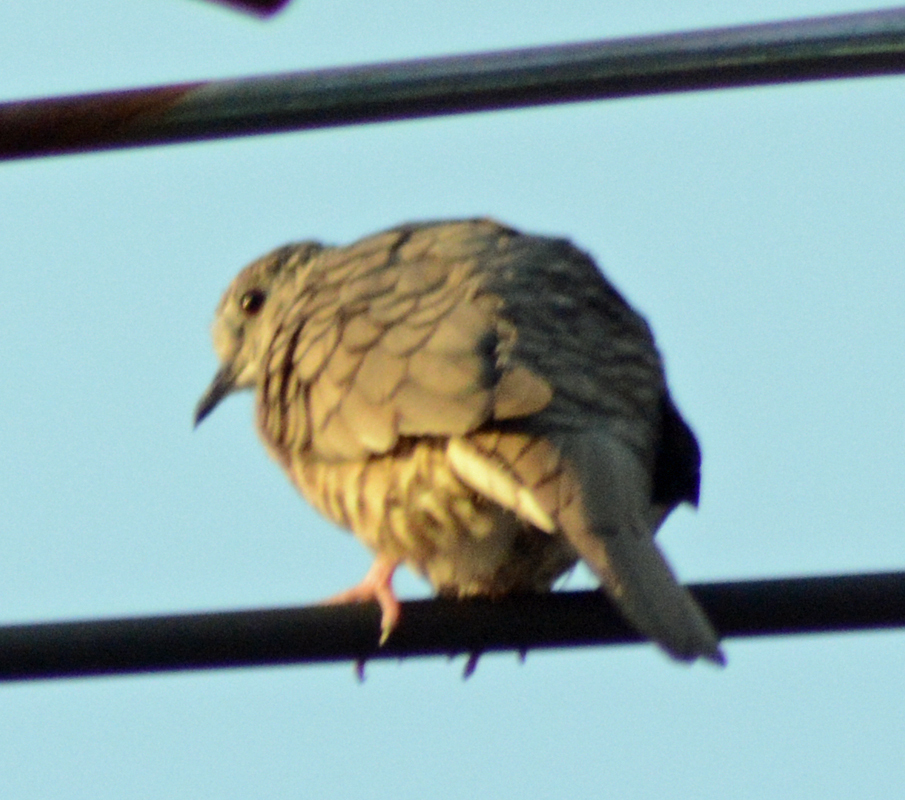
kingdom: Animalia
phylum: Chordata
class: Aves
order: Columbiformes
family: Columbidae
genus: Columbina
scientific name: Columbina inca
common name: Inca dove
